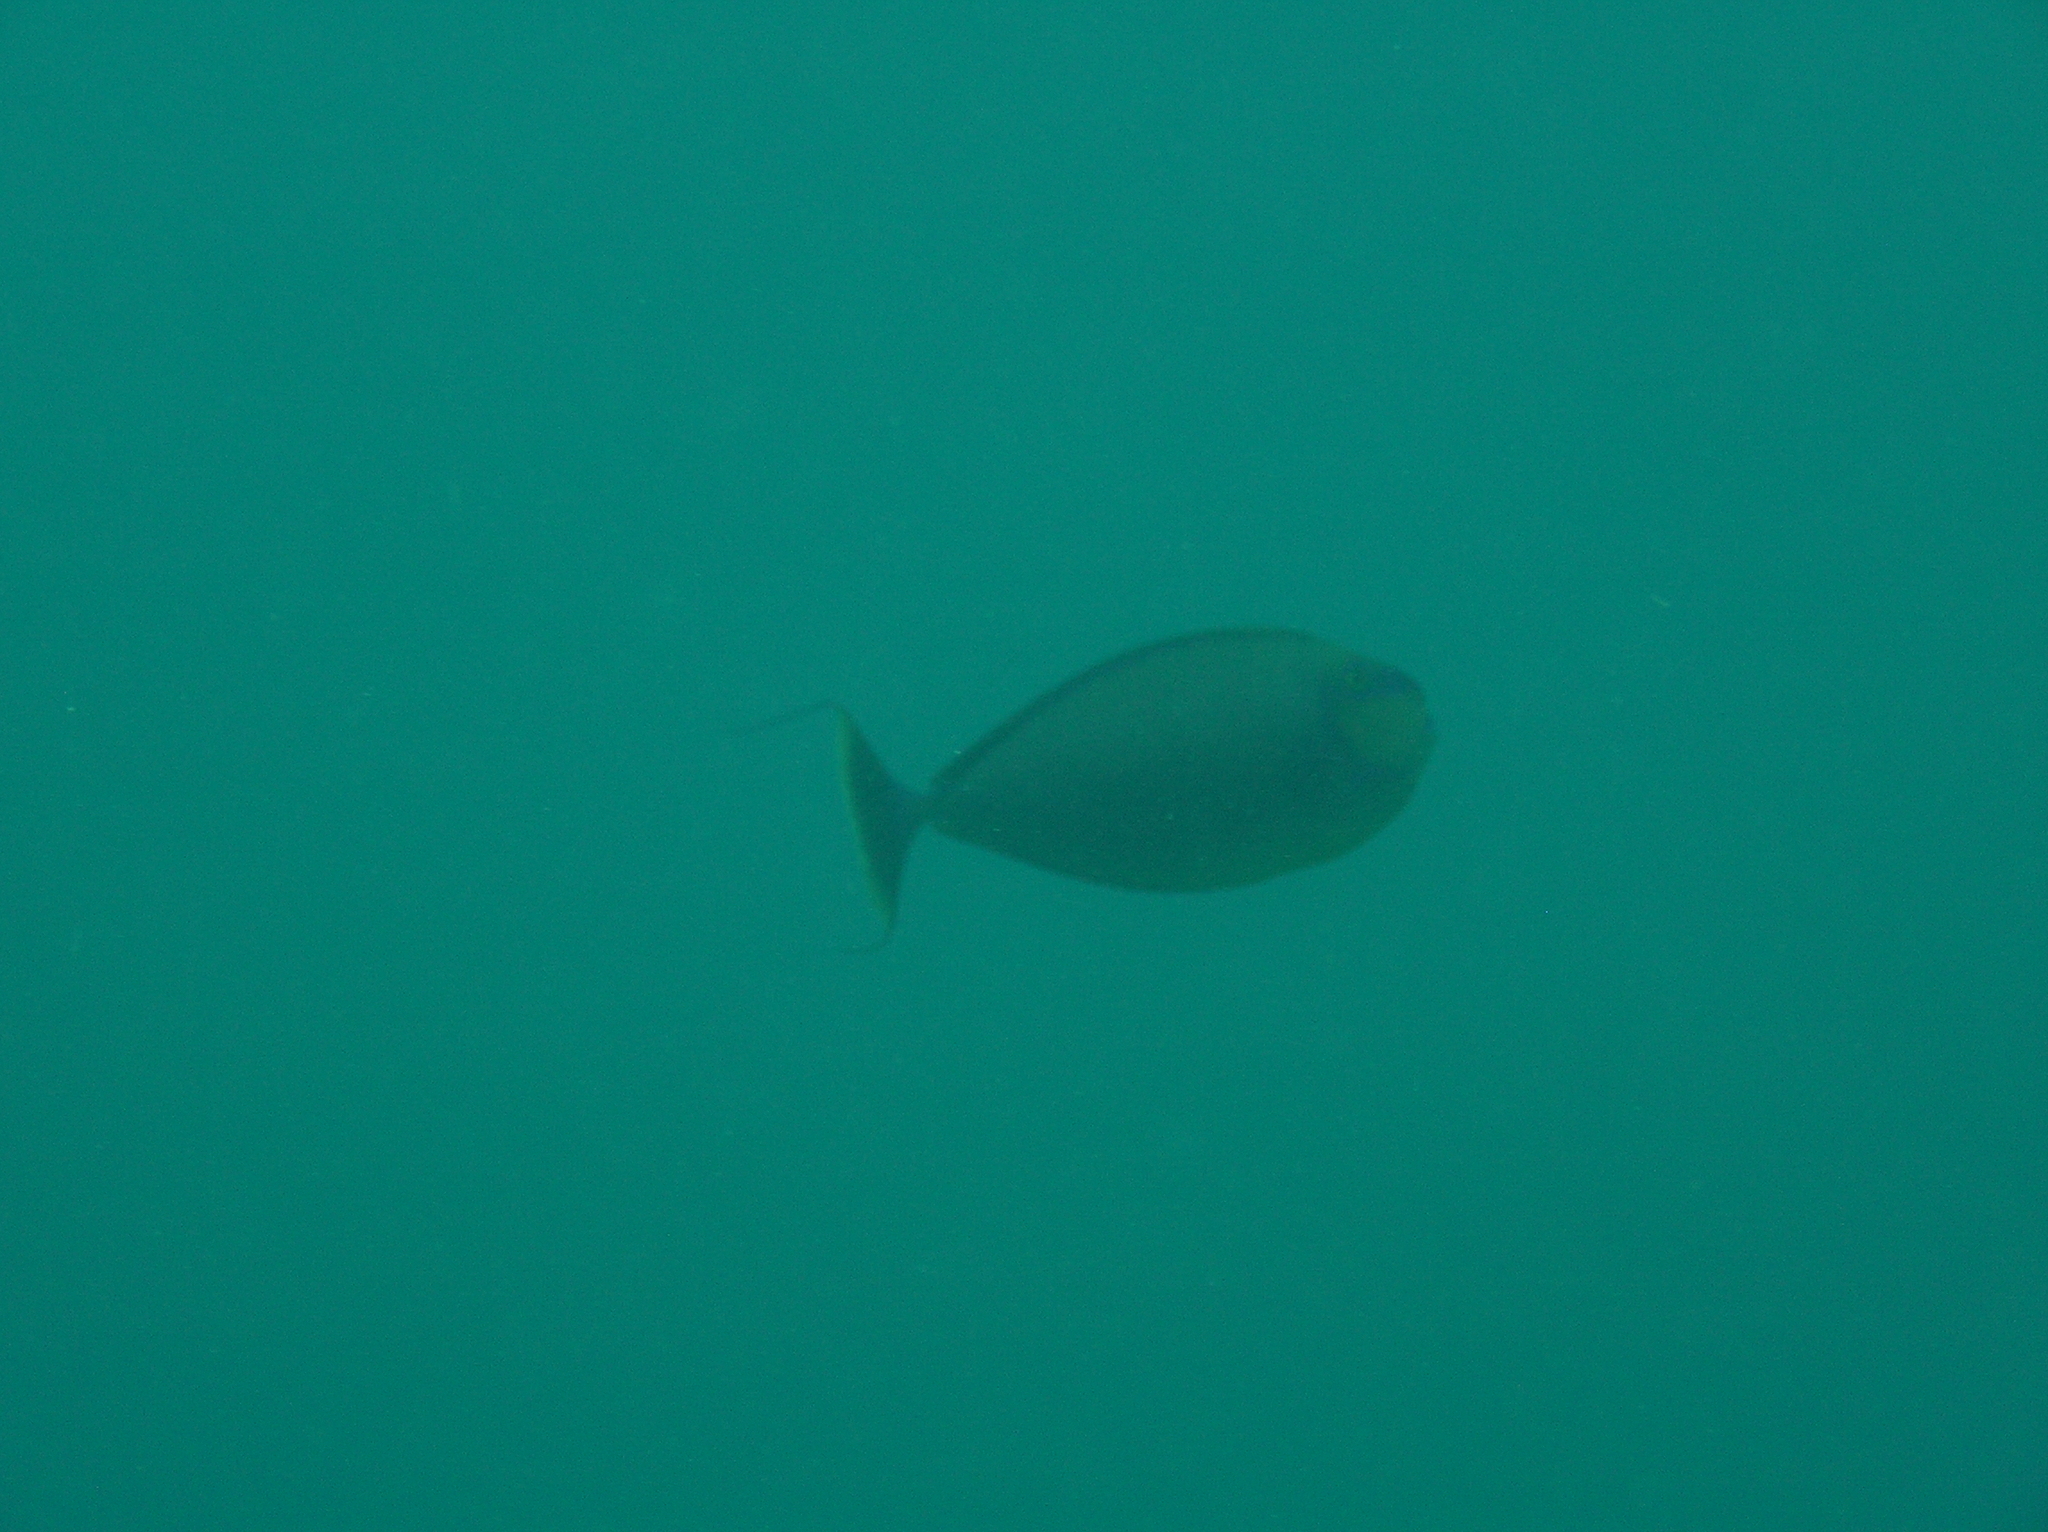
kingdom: Animalia
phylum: Chordata
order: Perciformes
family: Acanthuridae
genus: Naso
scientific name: Naso vlamingii
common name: Big-nose unicorn
